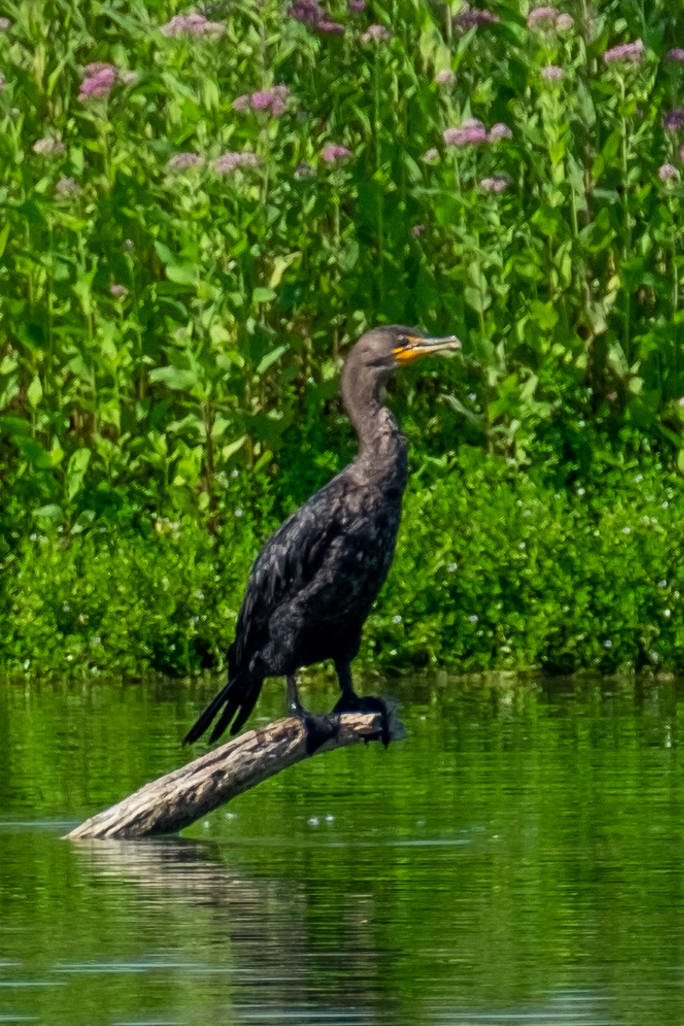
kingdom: Animalia
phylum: Chordata
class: Aves
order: Suliformes
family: Phalacrocoracidae
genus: Phalacrocorax
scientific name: Phalacrocorax auritus
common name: Double-crested cormorant
